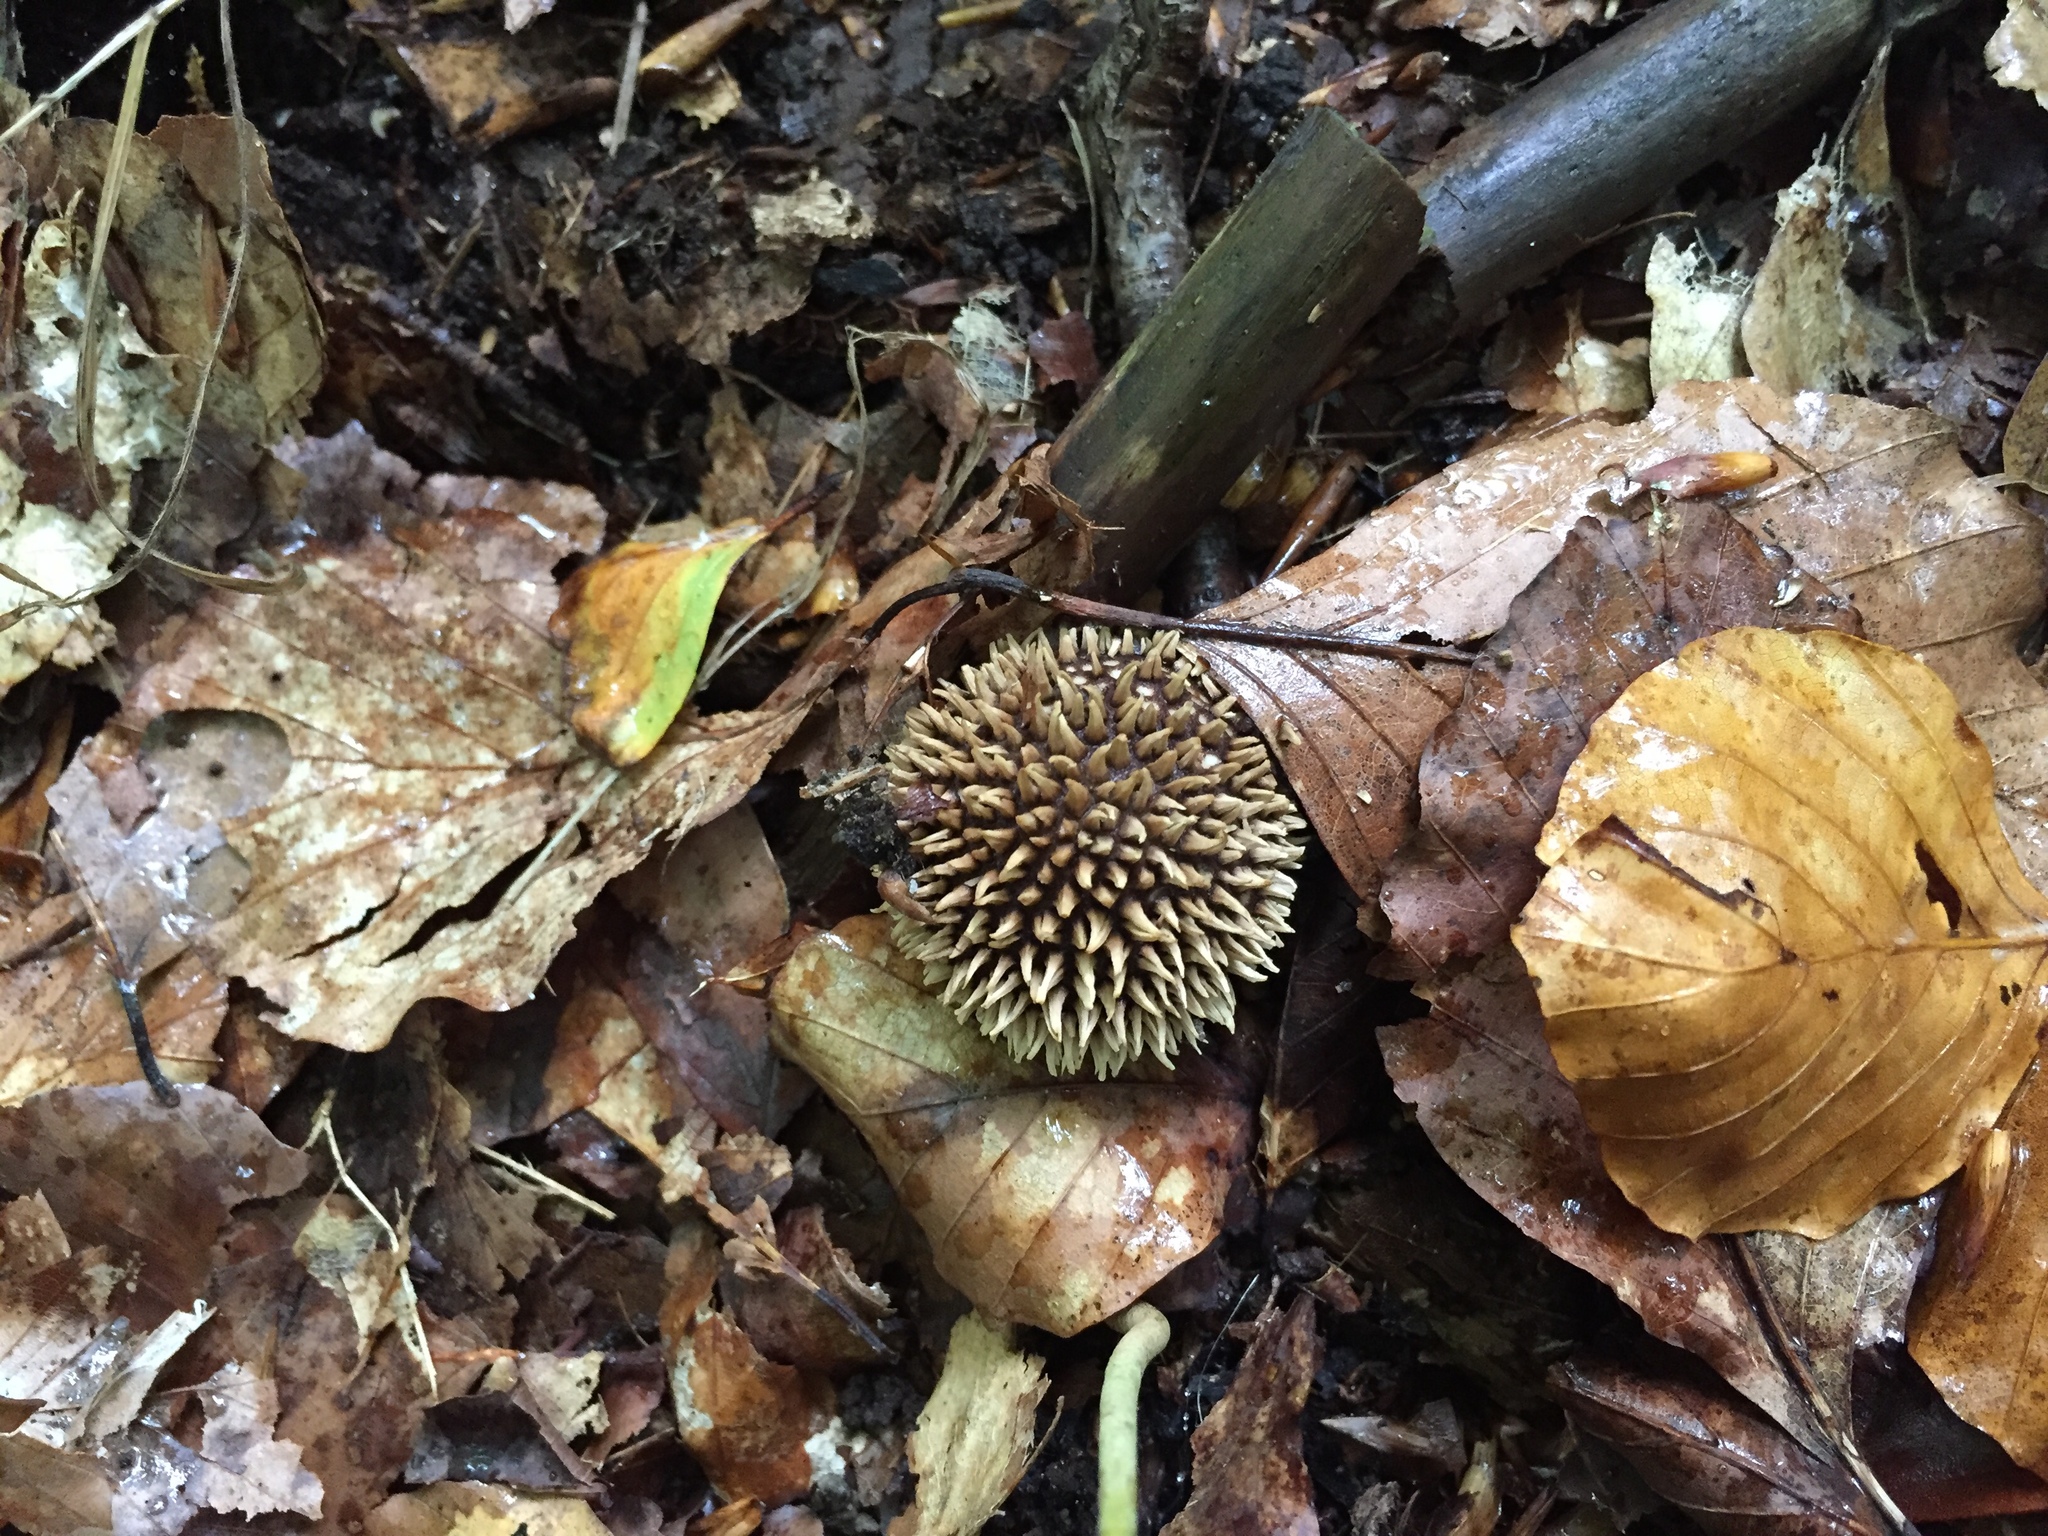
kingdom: Fungi
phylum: Basidiomycota
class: Agaricomycetes
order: Agaricales
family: Lycoperdaceae
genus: Lycoperdon
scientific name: Lycoperdon echinatum
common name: Hedgehog puffball
